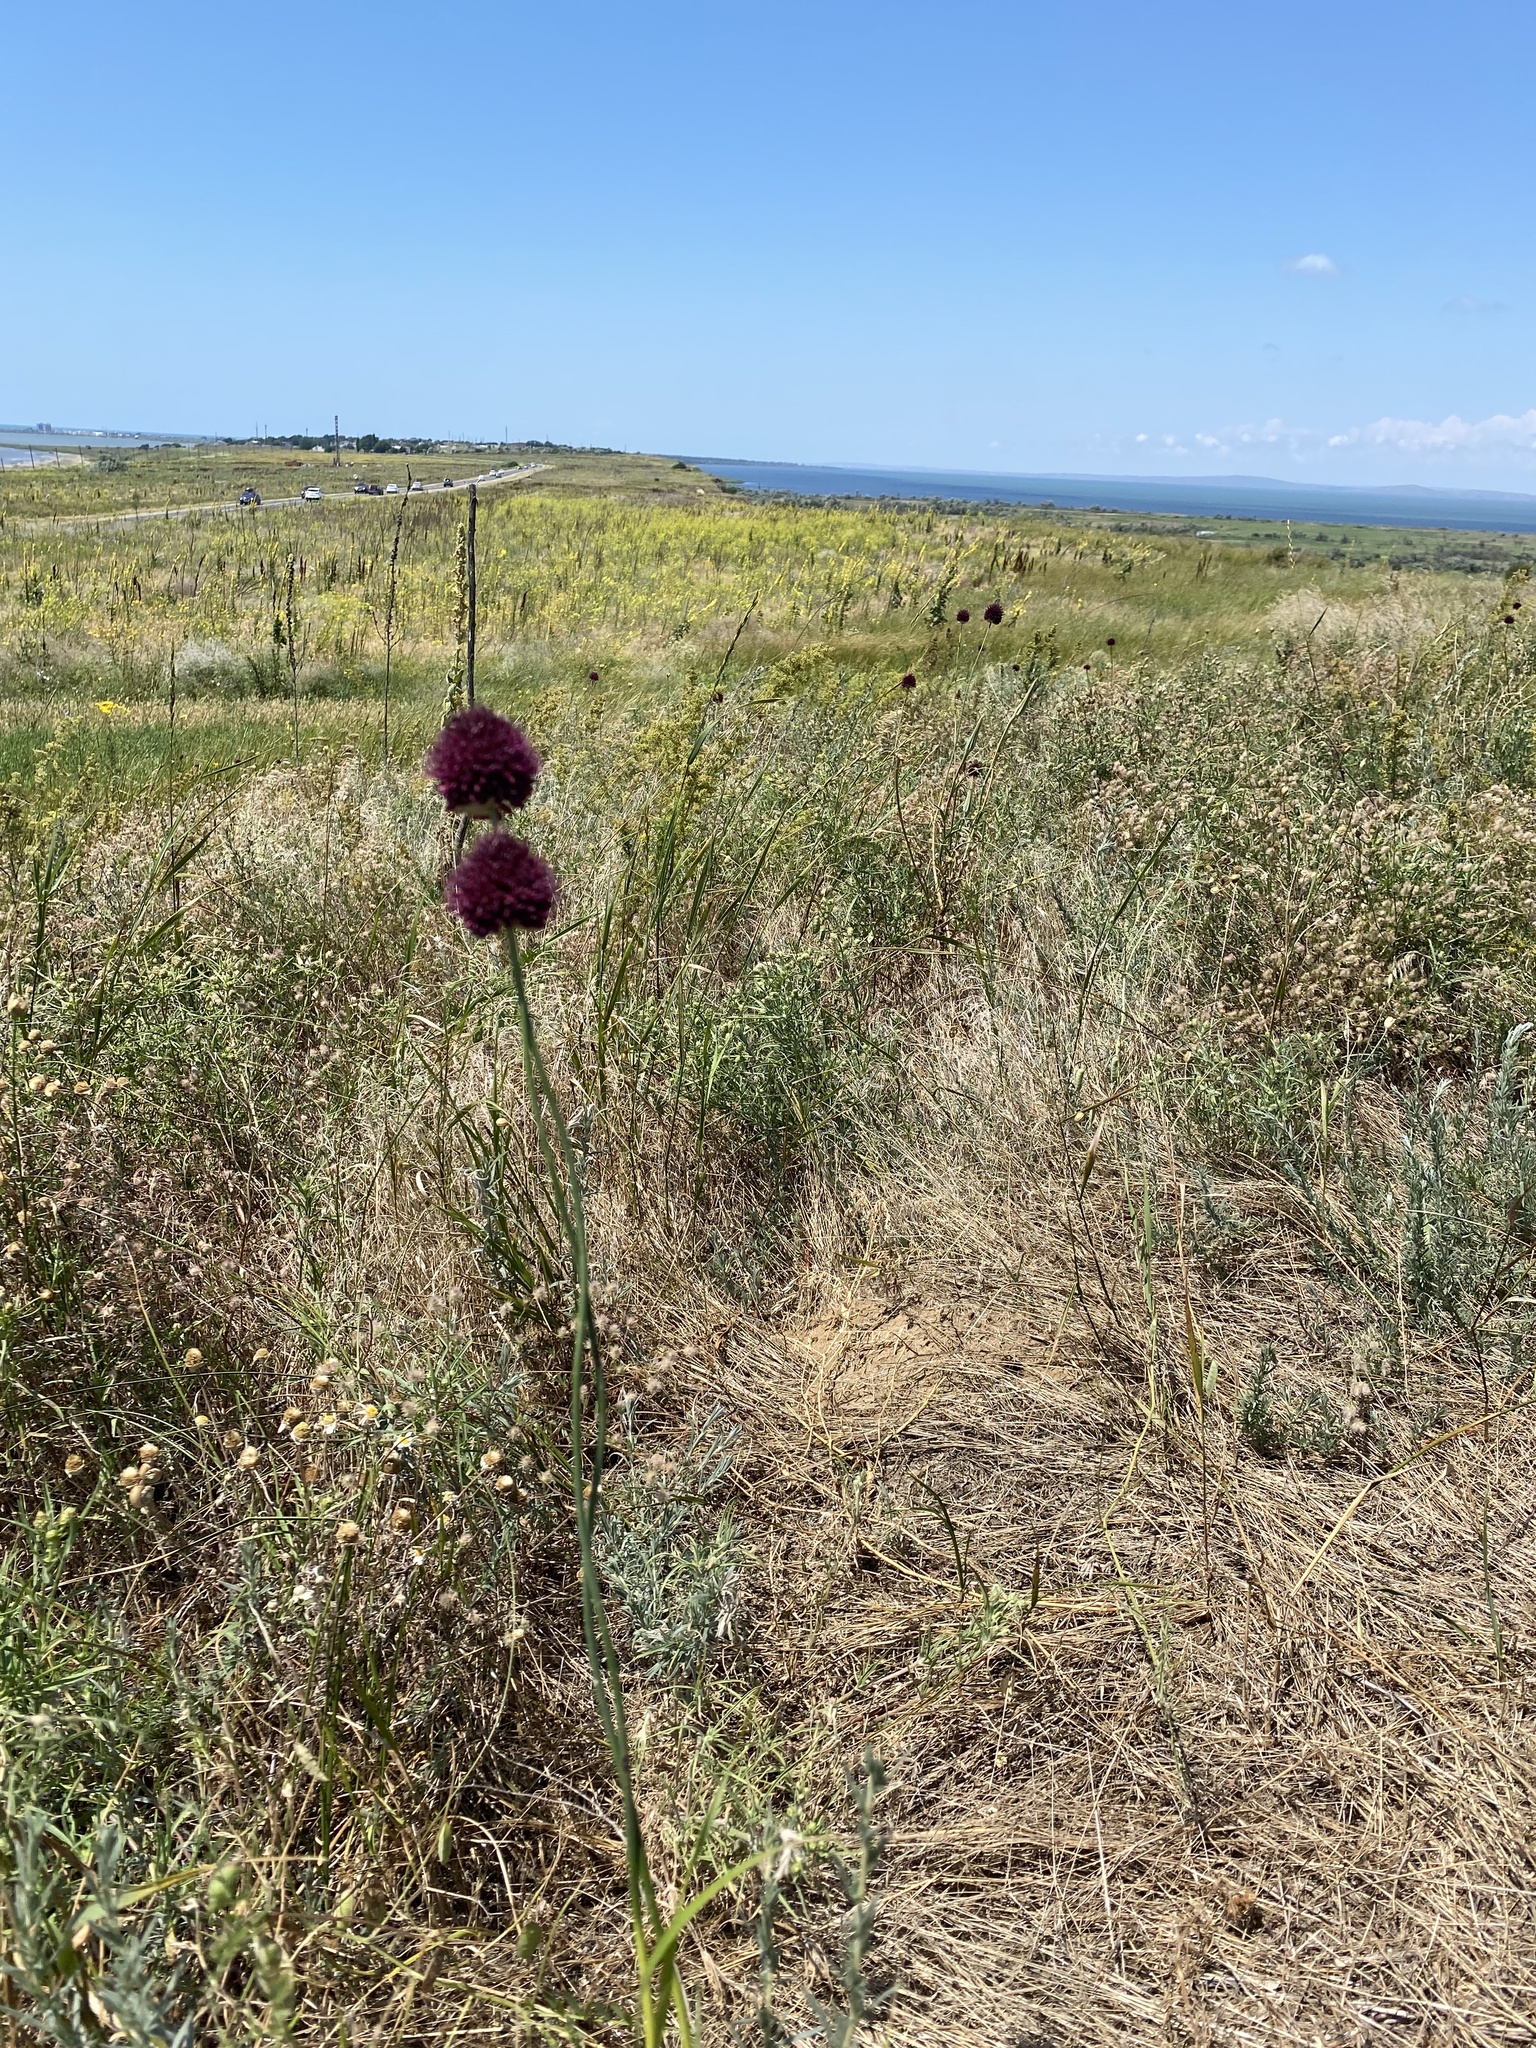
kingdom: Plantae
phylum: Tracheophyta
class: Liliopsida
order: Asparagales
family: Amaryllidaceae
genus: Allium
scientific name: Allium atroviolaceum
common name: Broadleaf wild leek
